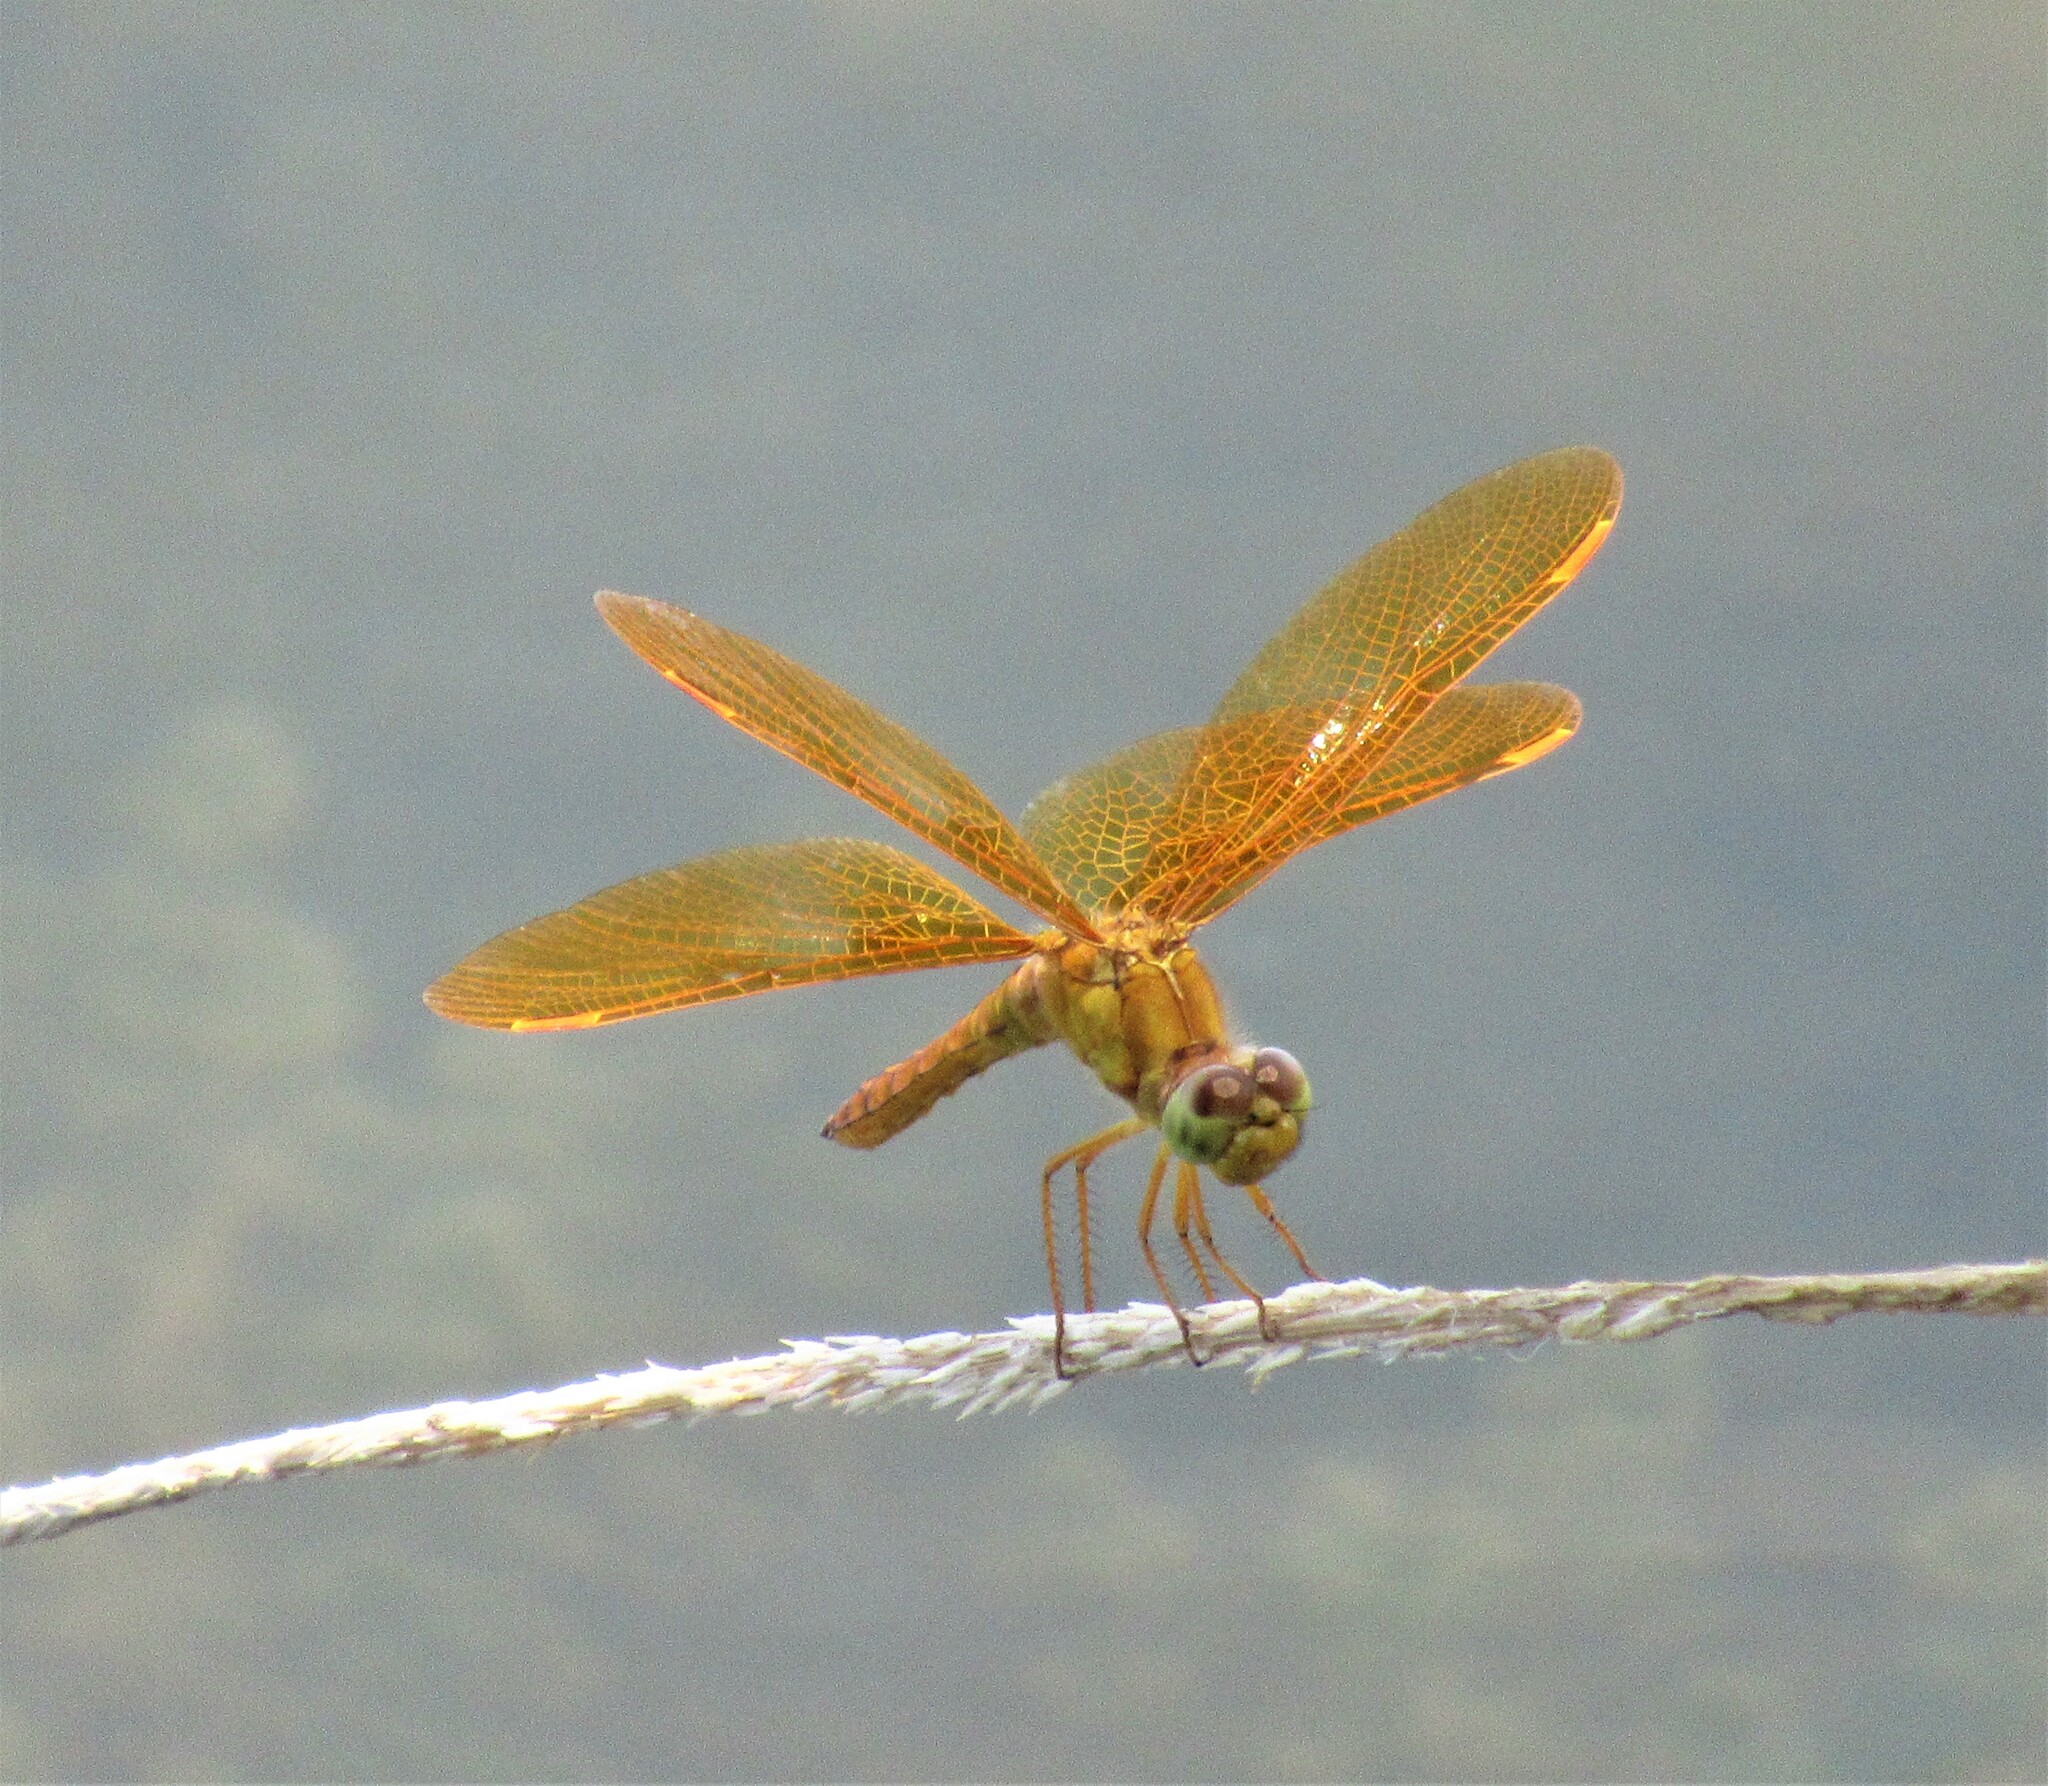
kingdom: Animalia
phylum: Arthropoda
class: Insecta
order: Odonata
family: Libellulidae
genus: Perithemis
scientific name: Perithemis intensa
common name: Mexican amberwing
